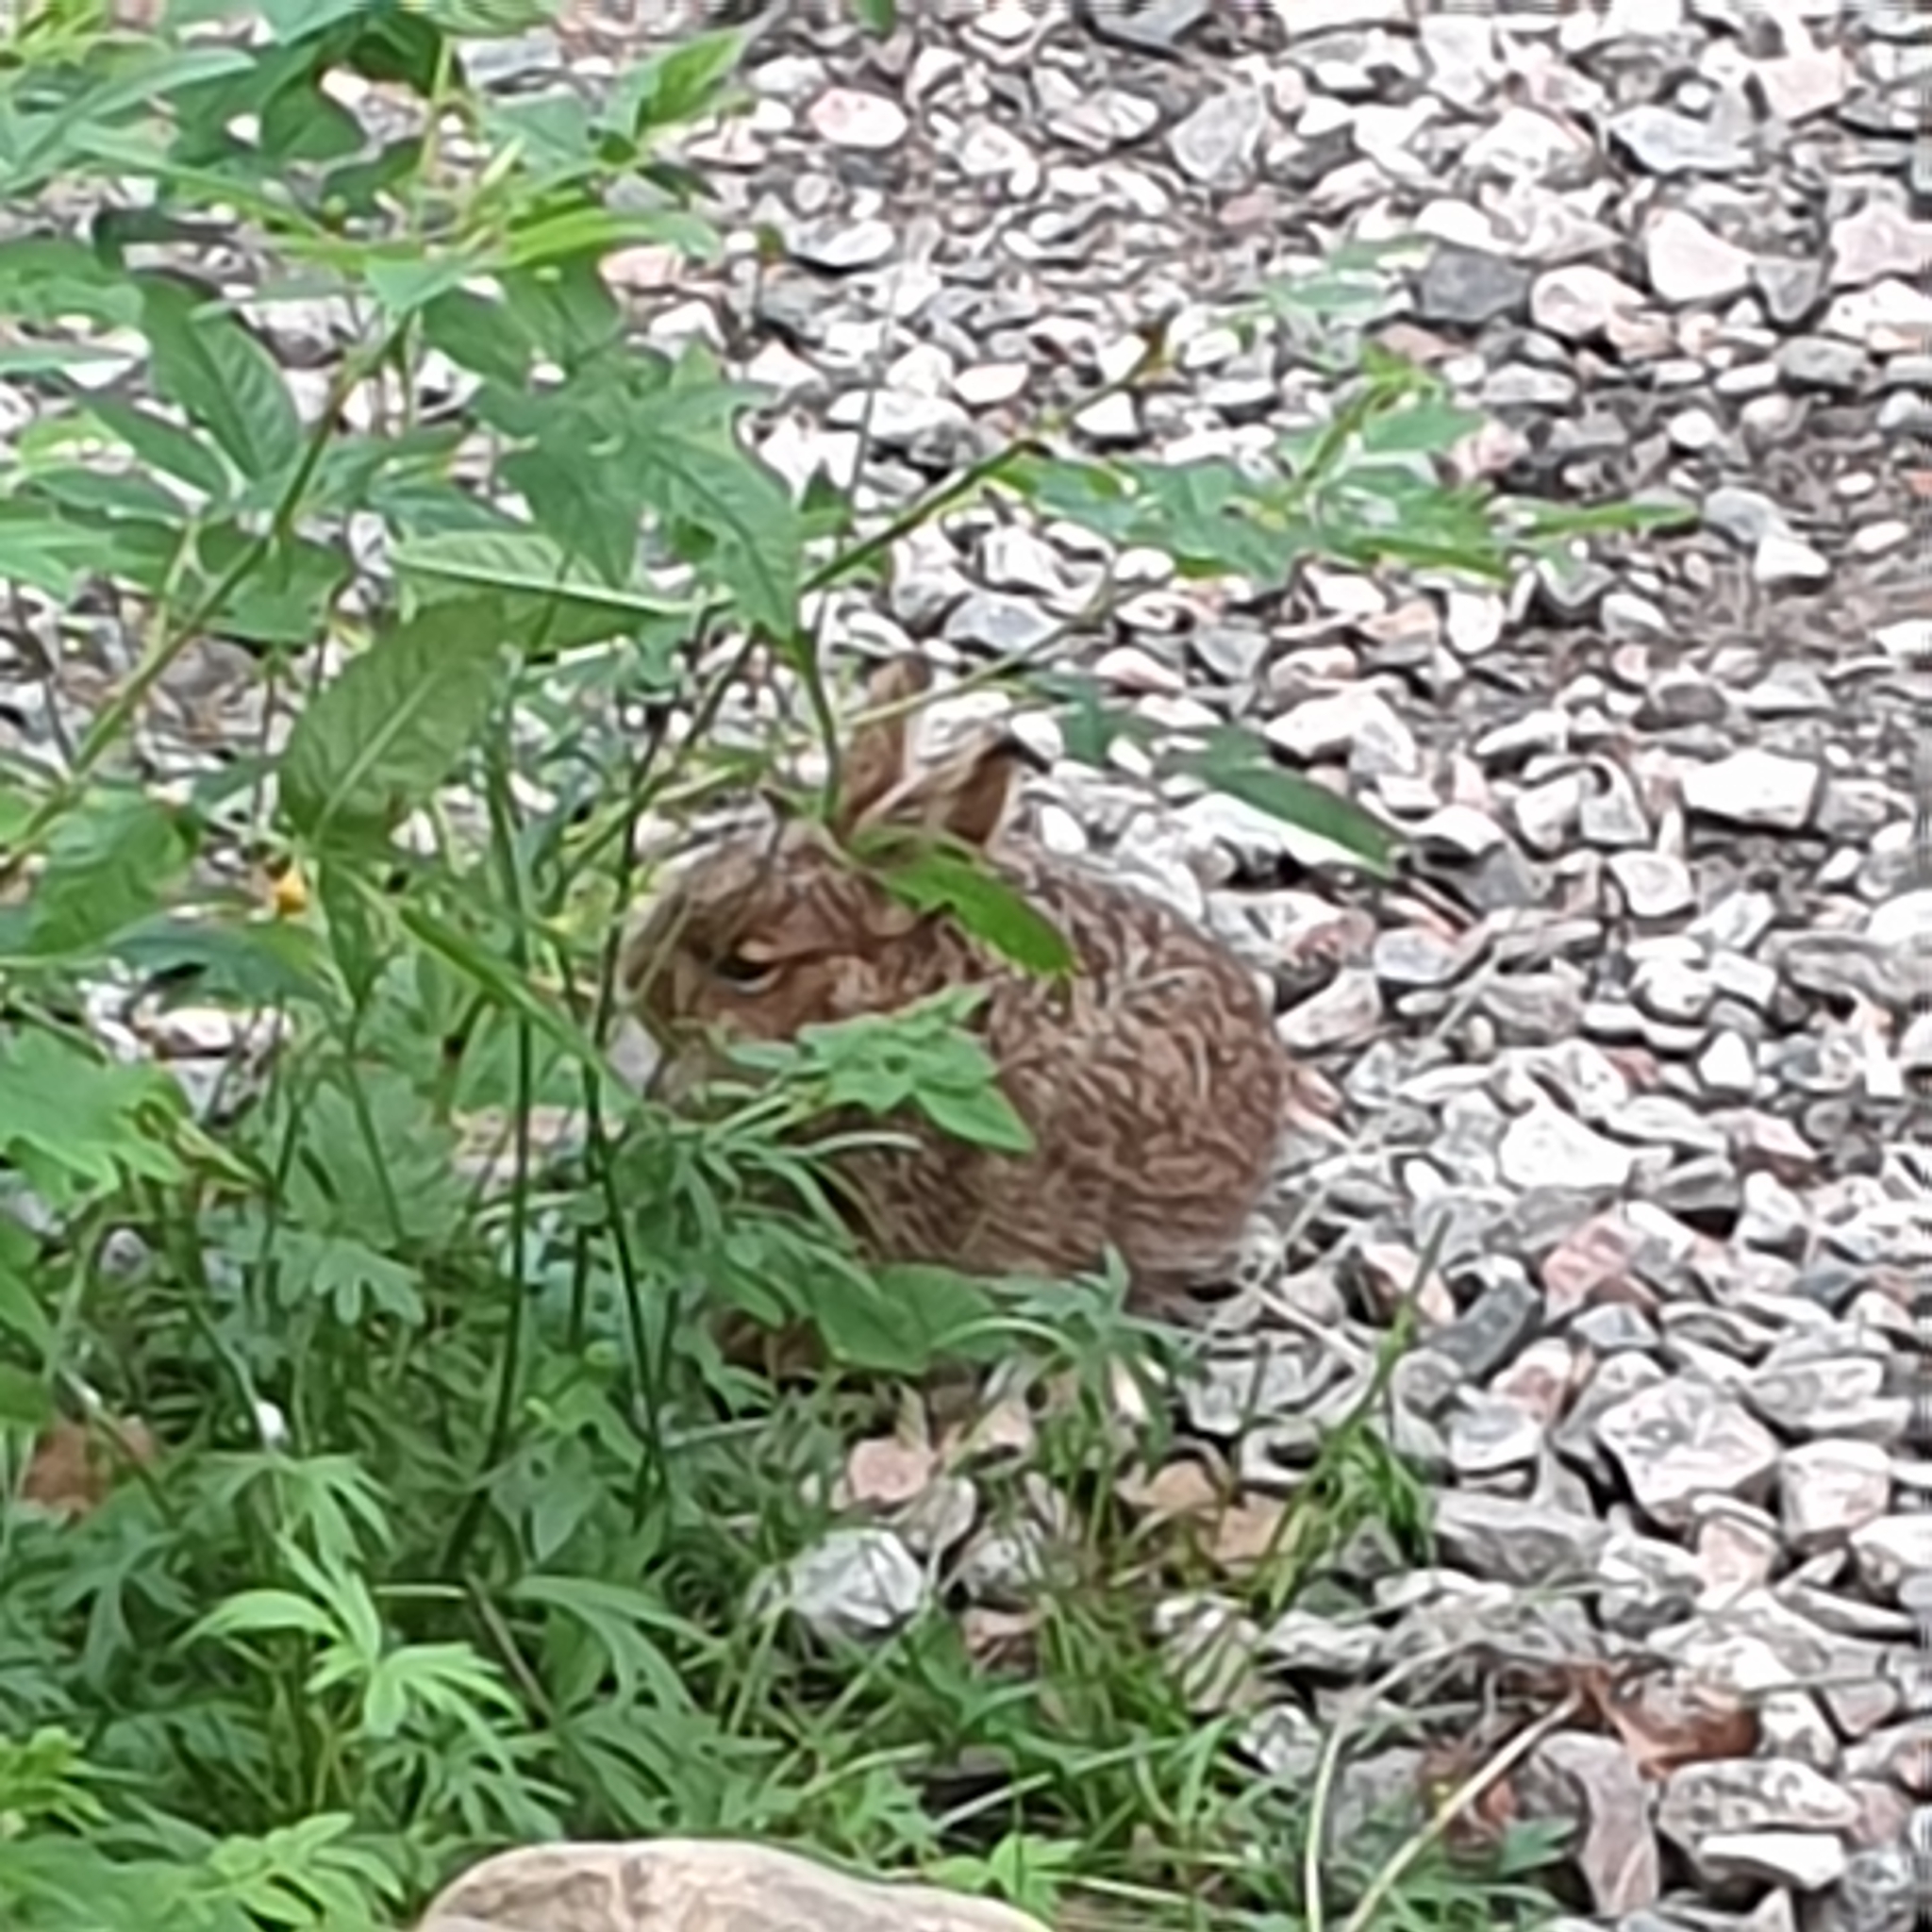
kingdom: Animalia
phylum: Chordata
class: Mammalia
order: Lagomorpha
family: Leporidae
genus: Lepus
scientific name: Lepus timidus
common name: Mountain hare
